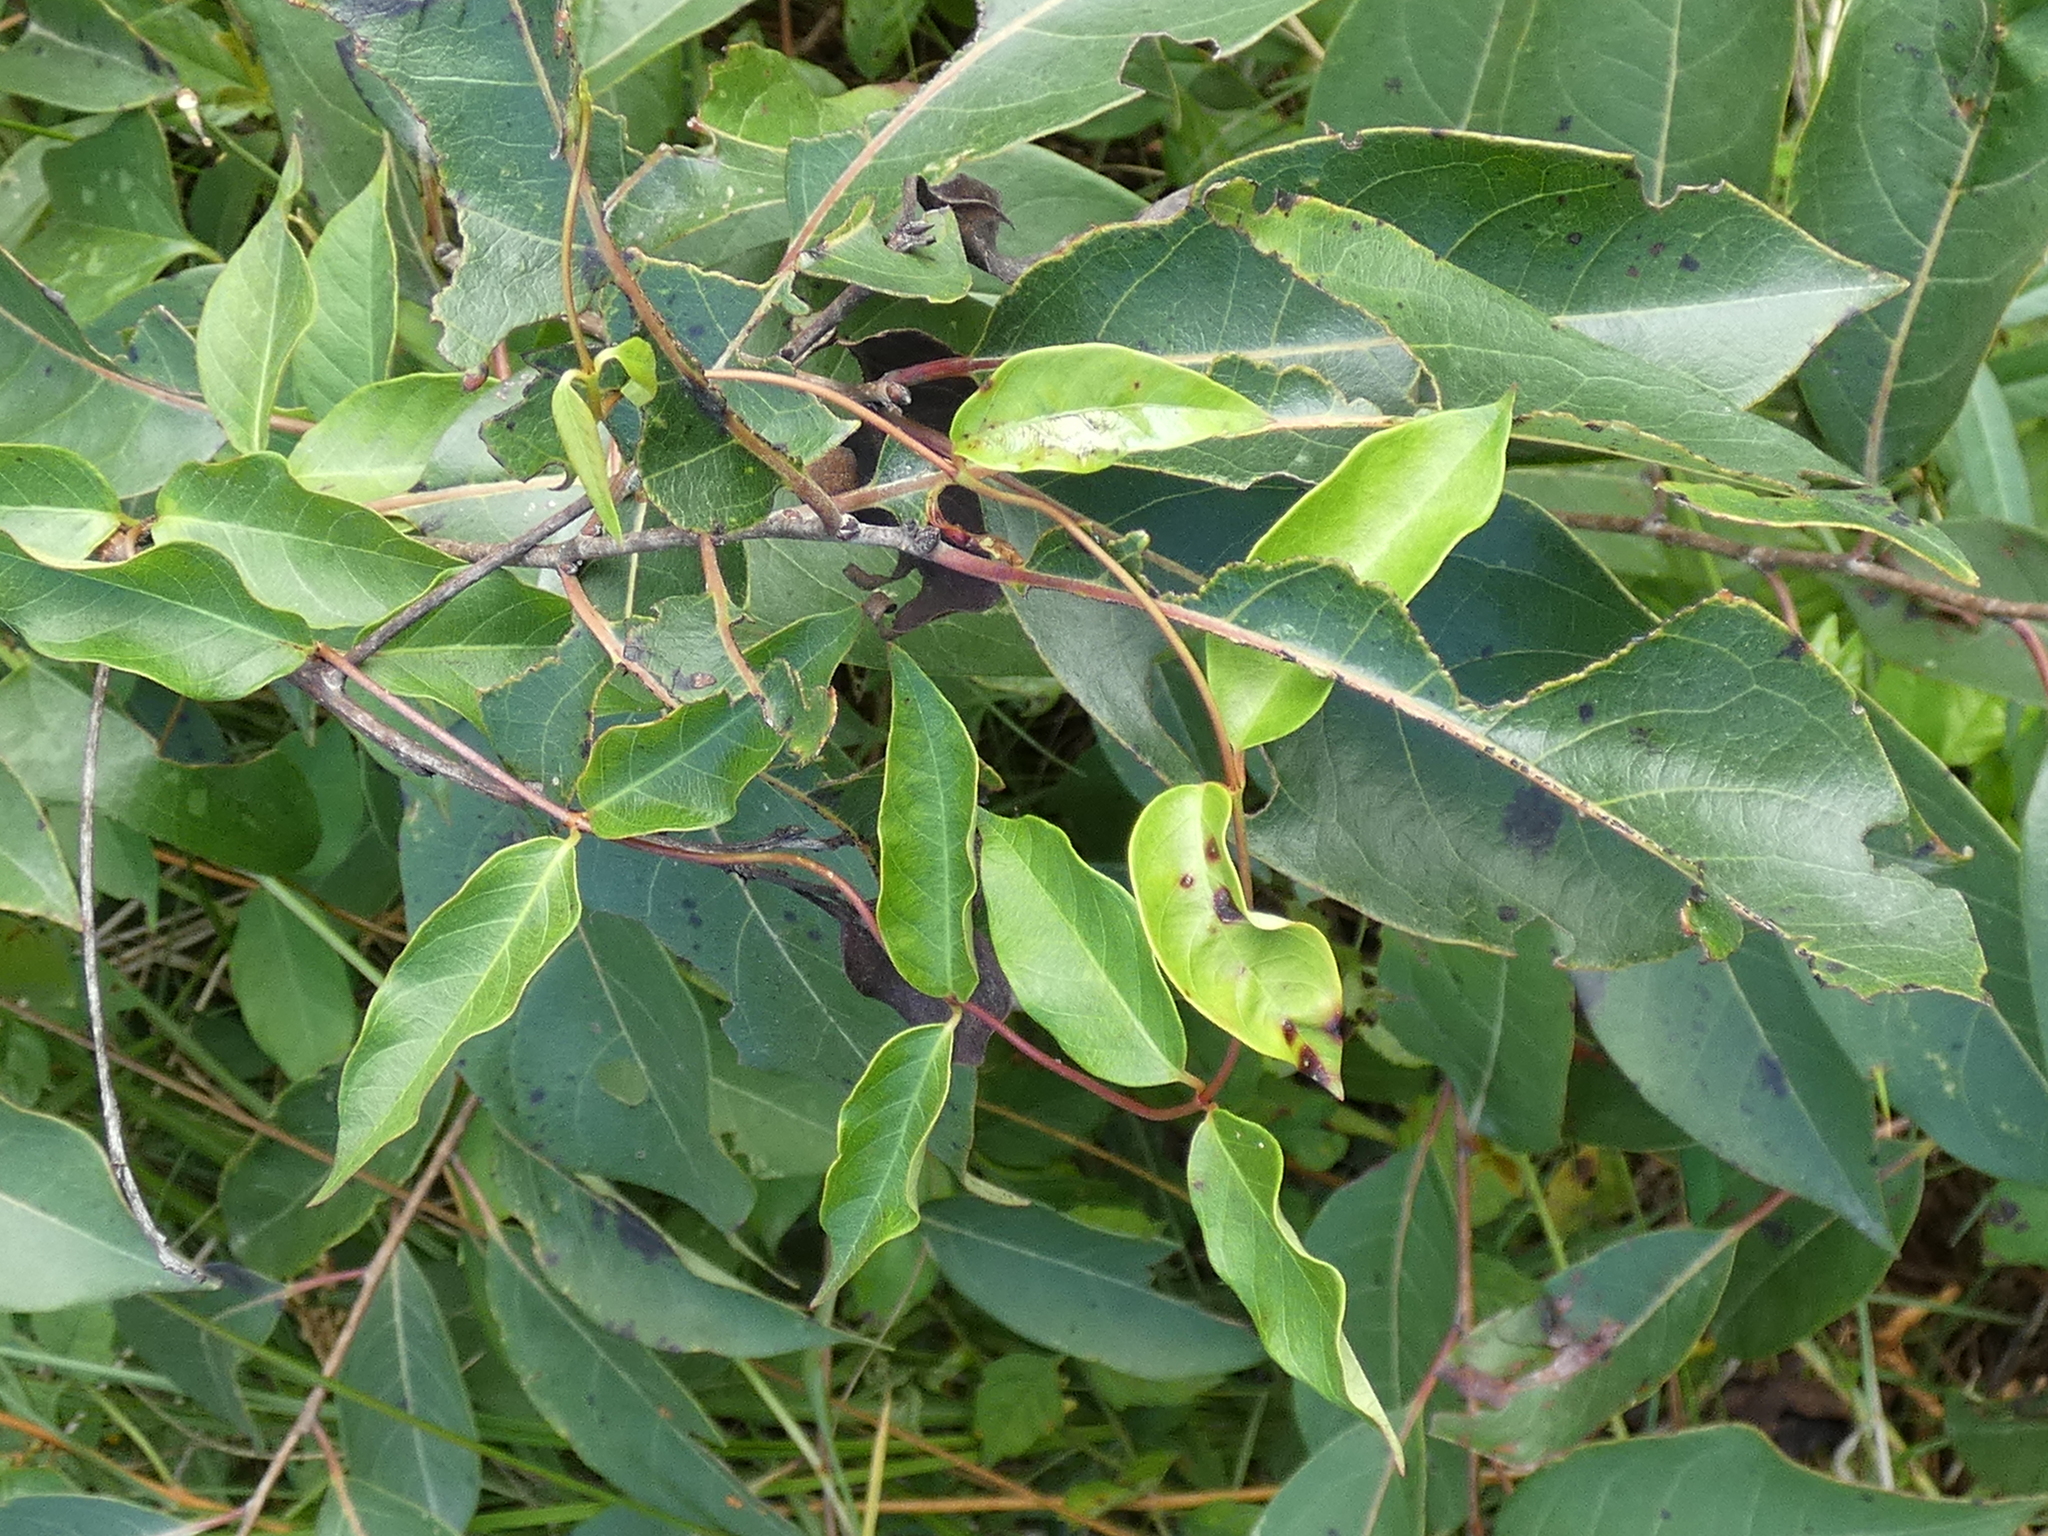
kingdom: Plantae
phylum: Tracheophyta
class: Magnoliopsida
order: Ericales
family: Ebenaceae
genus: Diospyros
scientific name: Diospyros virginiana
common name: Persimmon
